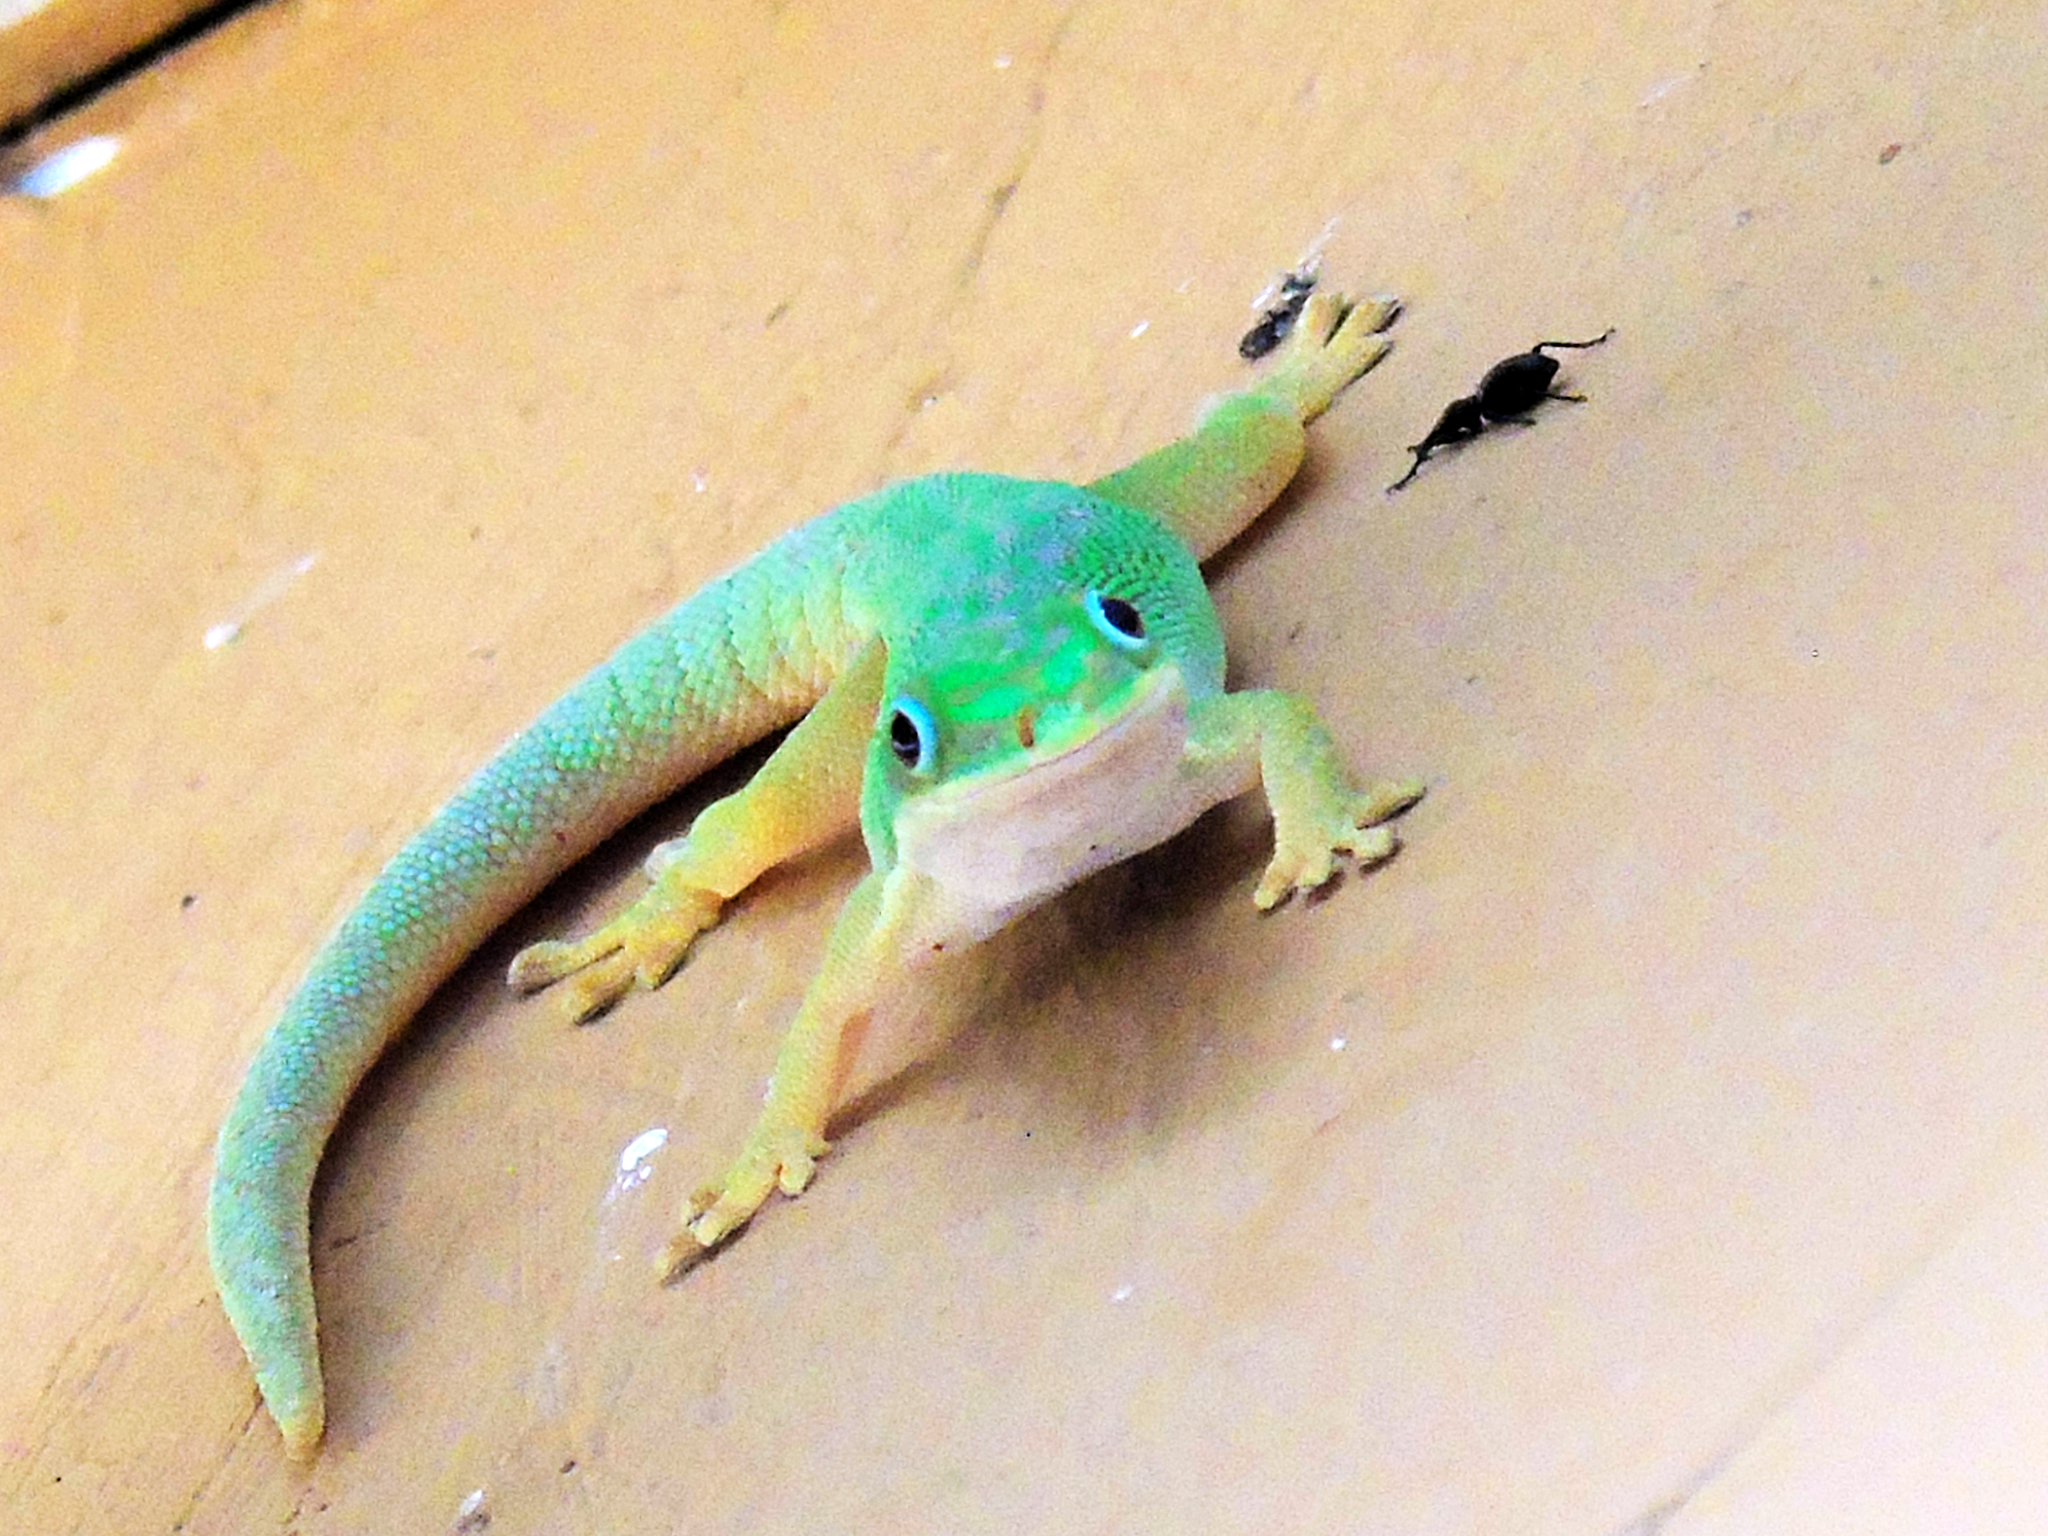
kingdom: Animalia
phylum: Chordata
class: Squamata
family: Gekkonidae
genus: Phelsuma
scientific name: Phelsuma dubia
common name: Zanzibar day gecko
